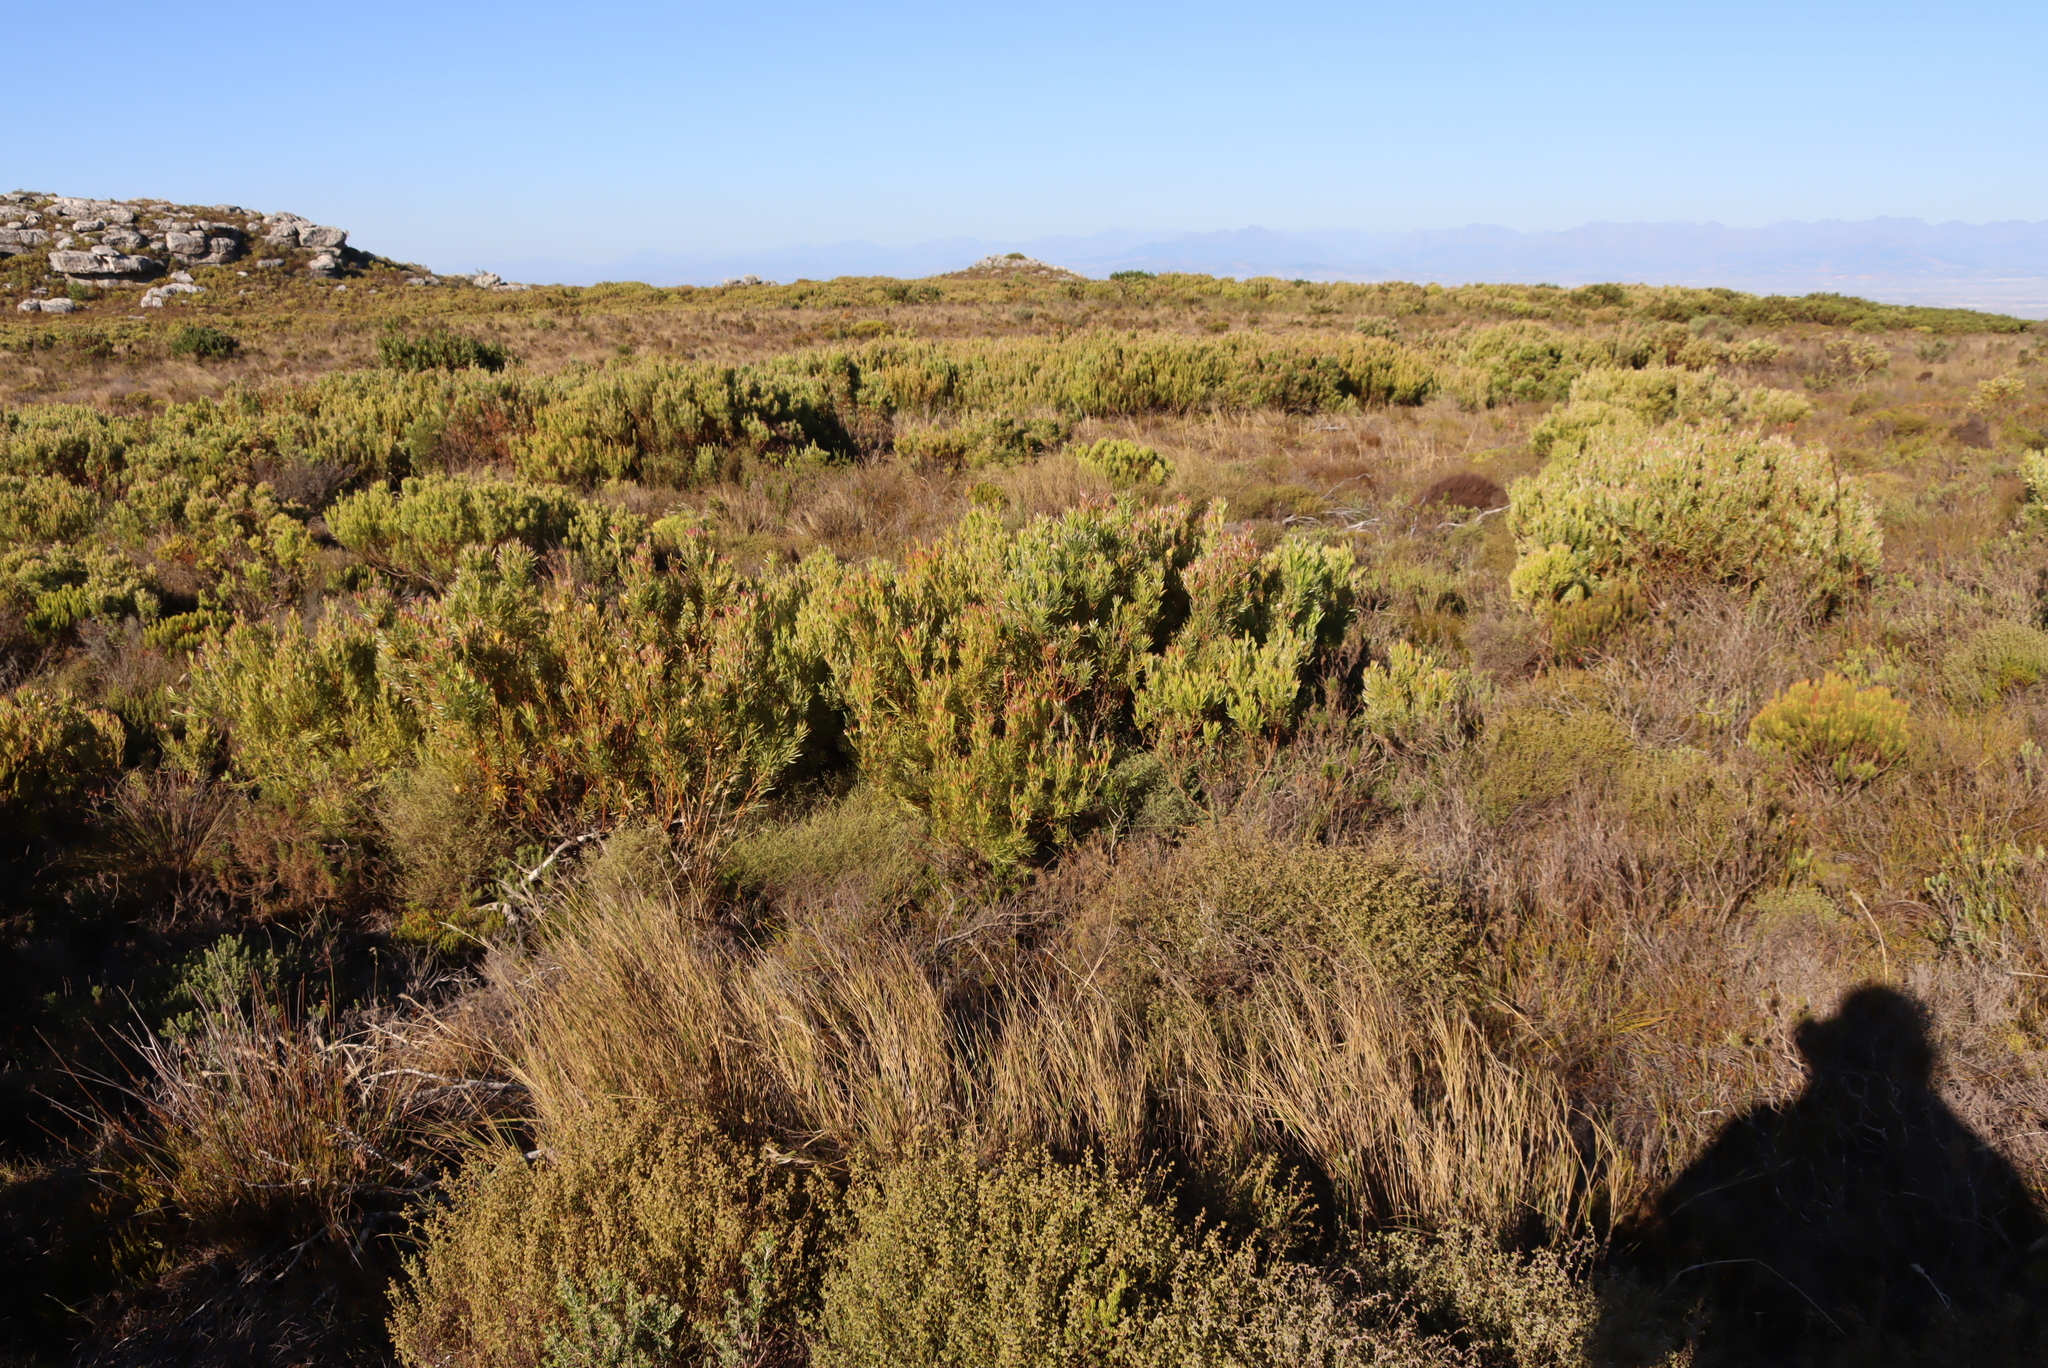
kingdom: Plantae
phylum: Tracheophyta
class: Magnoliopsida
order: Proteales
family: Proteaceae
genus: Leucadendron
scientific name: Leucadendron xanthoconus
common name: Sickle-leaf conebush
